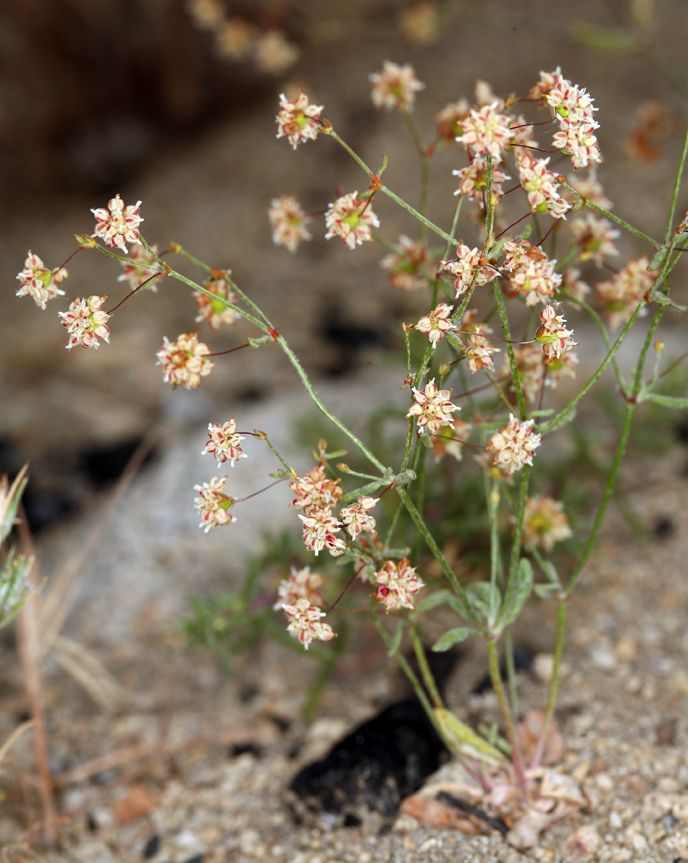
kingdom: Plantae
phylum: Tracheophyta
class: Magnoliopsida
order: Caryophyllales
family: Polygonaceae
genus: Eriogonum
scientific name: Eriogonum maculatum
